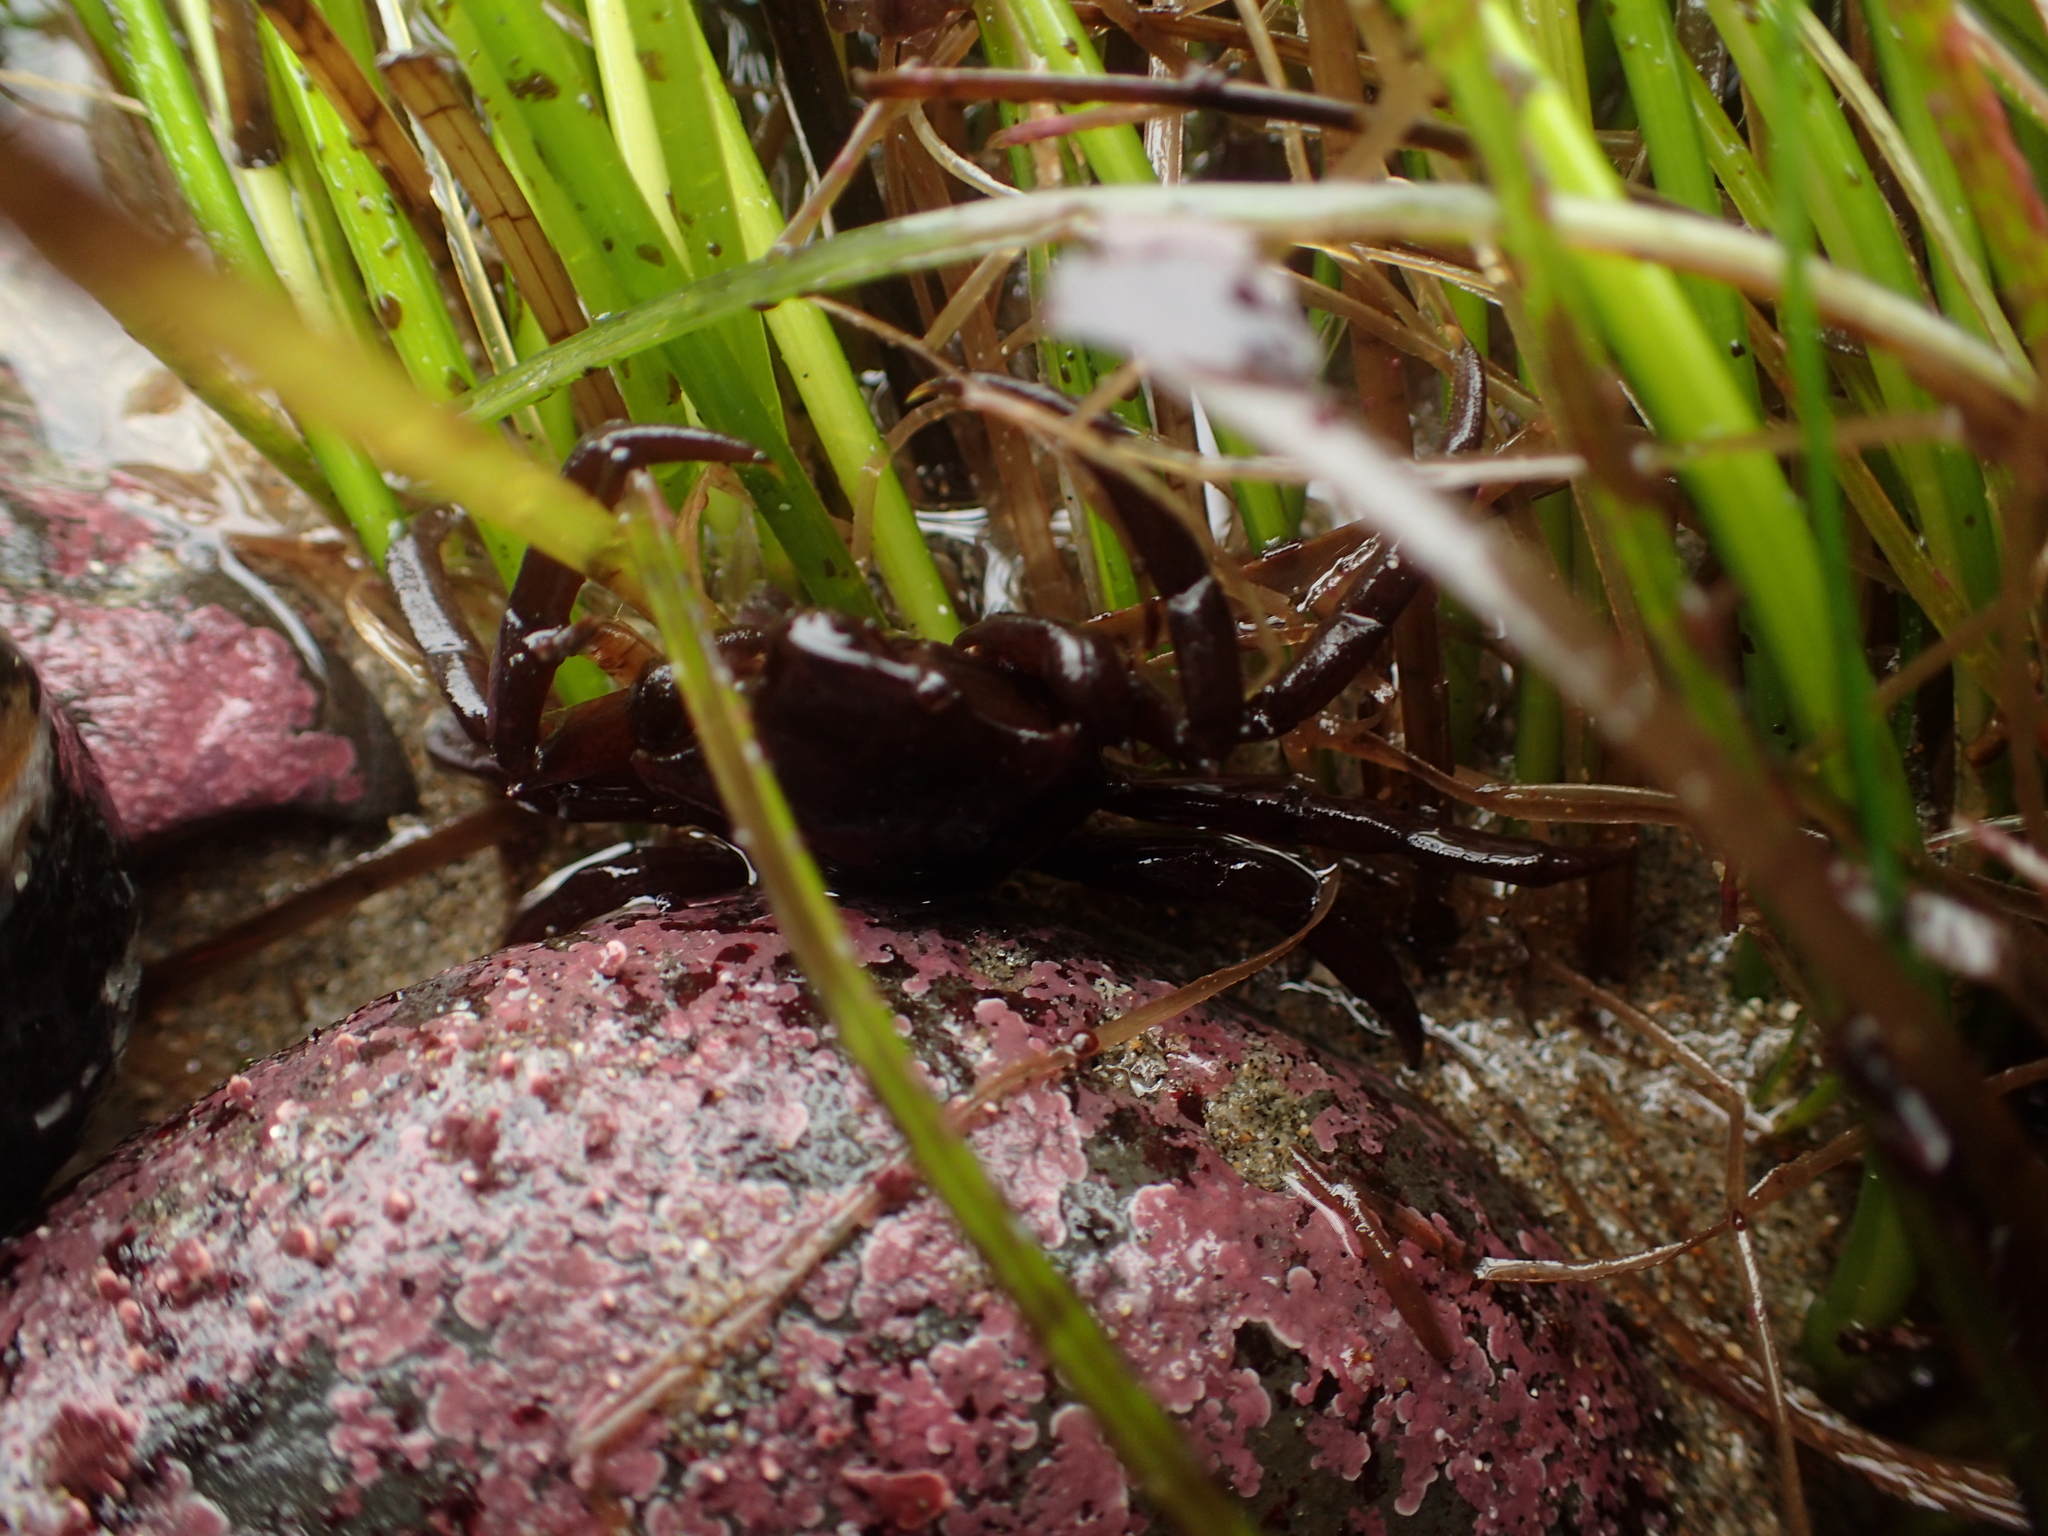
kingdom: Animalia
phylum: Arthropoda
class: Malacostraca
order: Decapoda
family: Epialtidae
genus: Pugettia
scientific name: Pugettia producta
